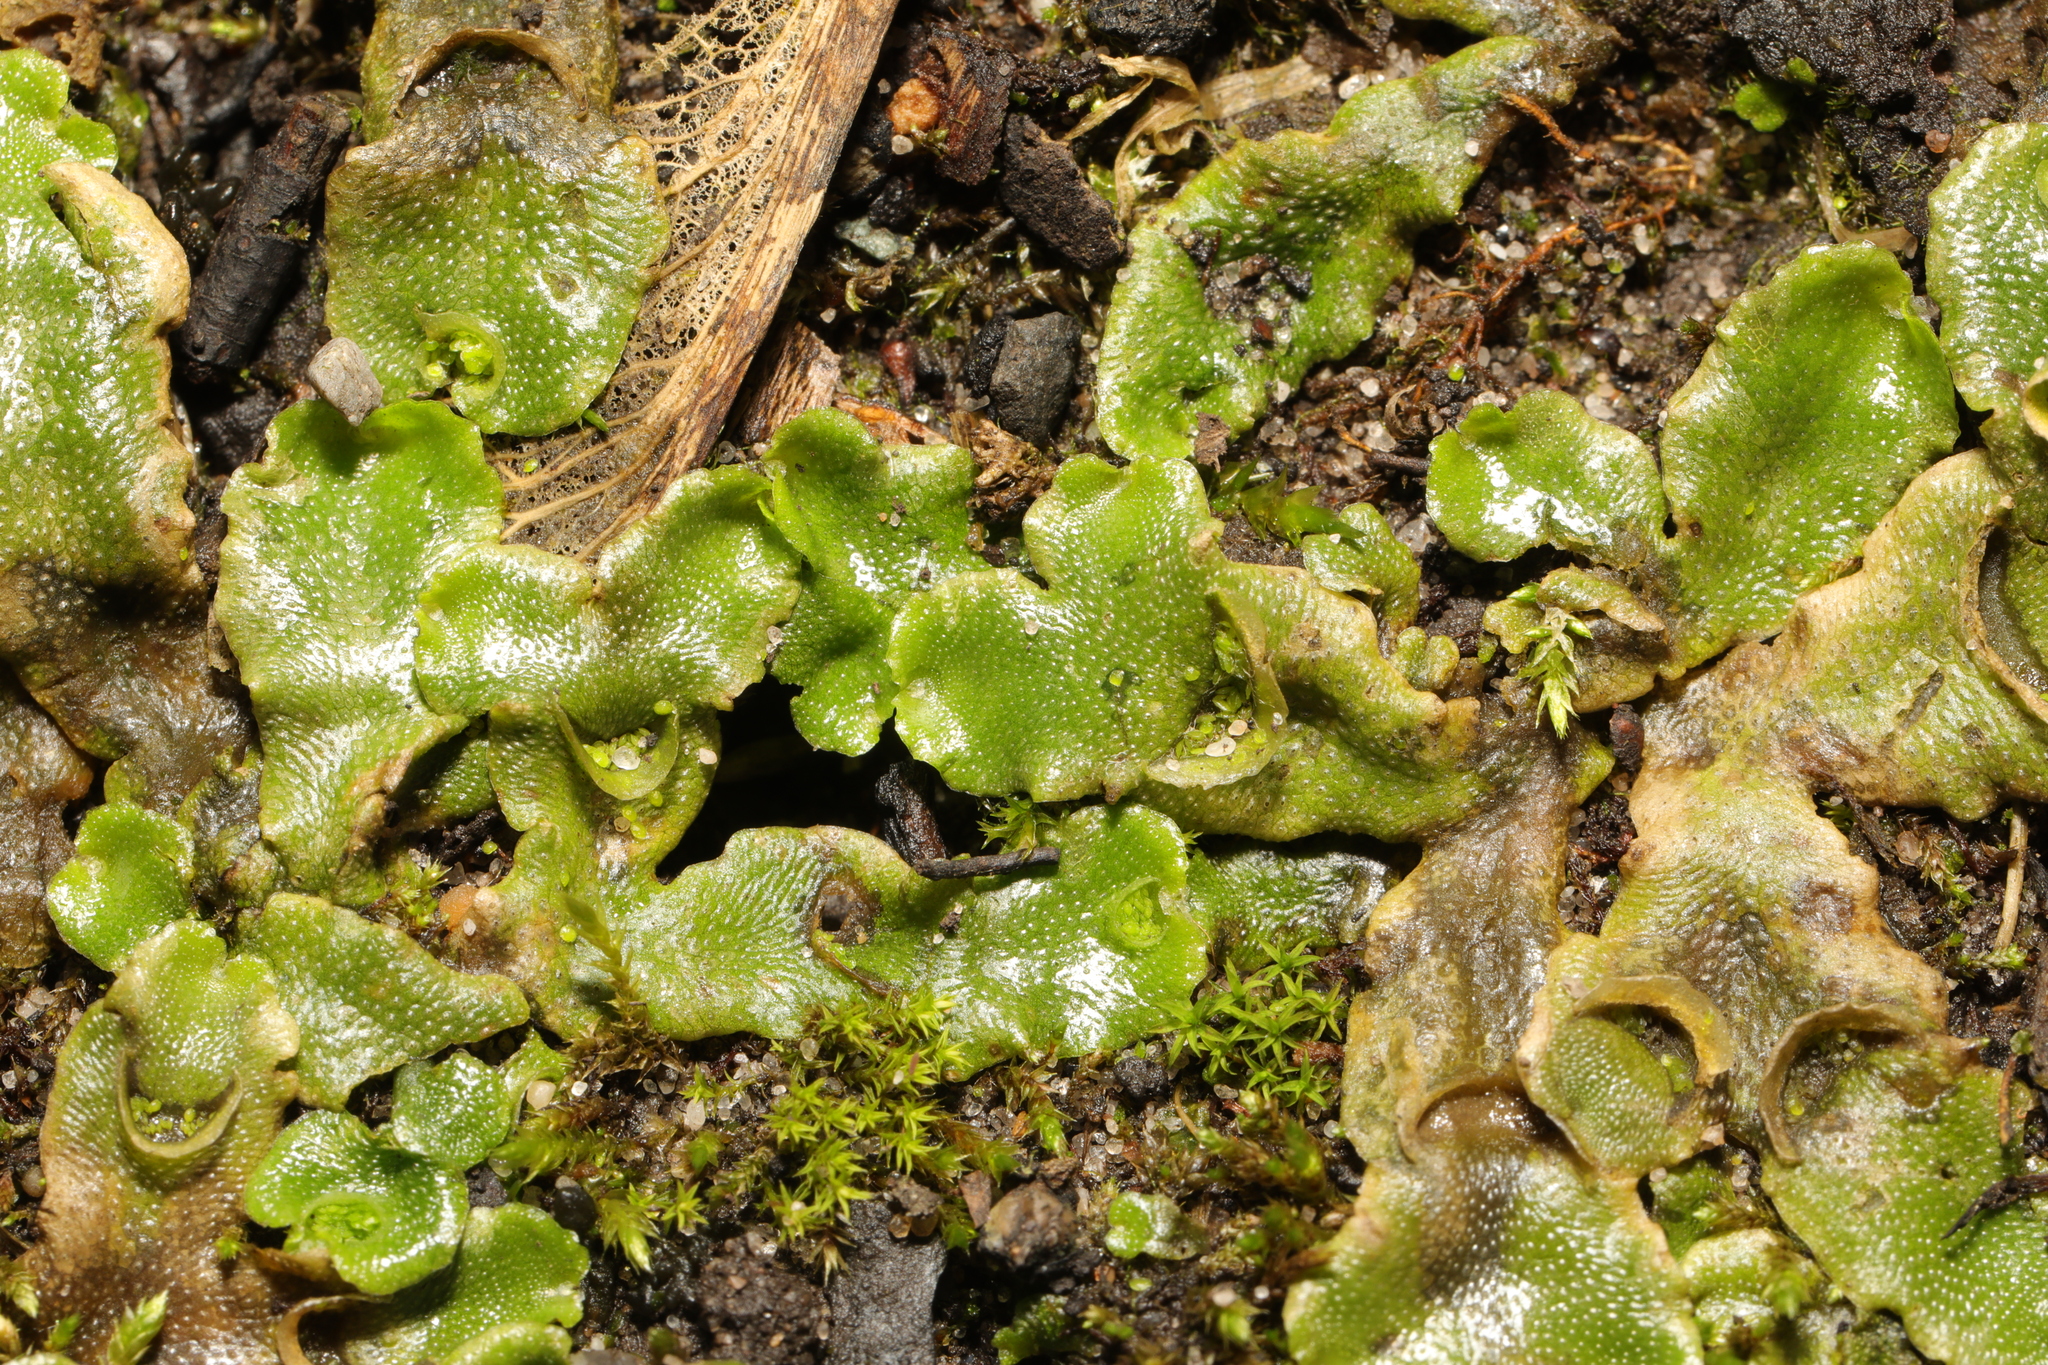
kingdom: Plantae
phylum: Marchantiophyta
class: Marchantiopsida
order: Lunulariales
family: Lunulariaceae
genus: Lunularia
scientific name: Lunularia cruciata
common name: Crescent-cup liverwort
